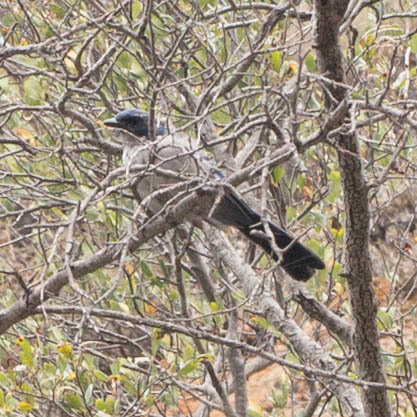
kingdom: Animalia
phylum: Chordata
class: Aves
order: Passeriformes
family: Corvidae
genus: Aphelocoma
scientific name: Aphelocoma insularis
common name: Island scrub-jay
